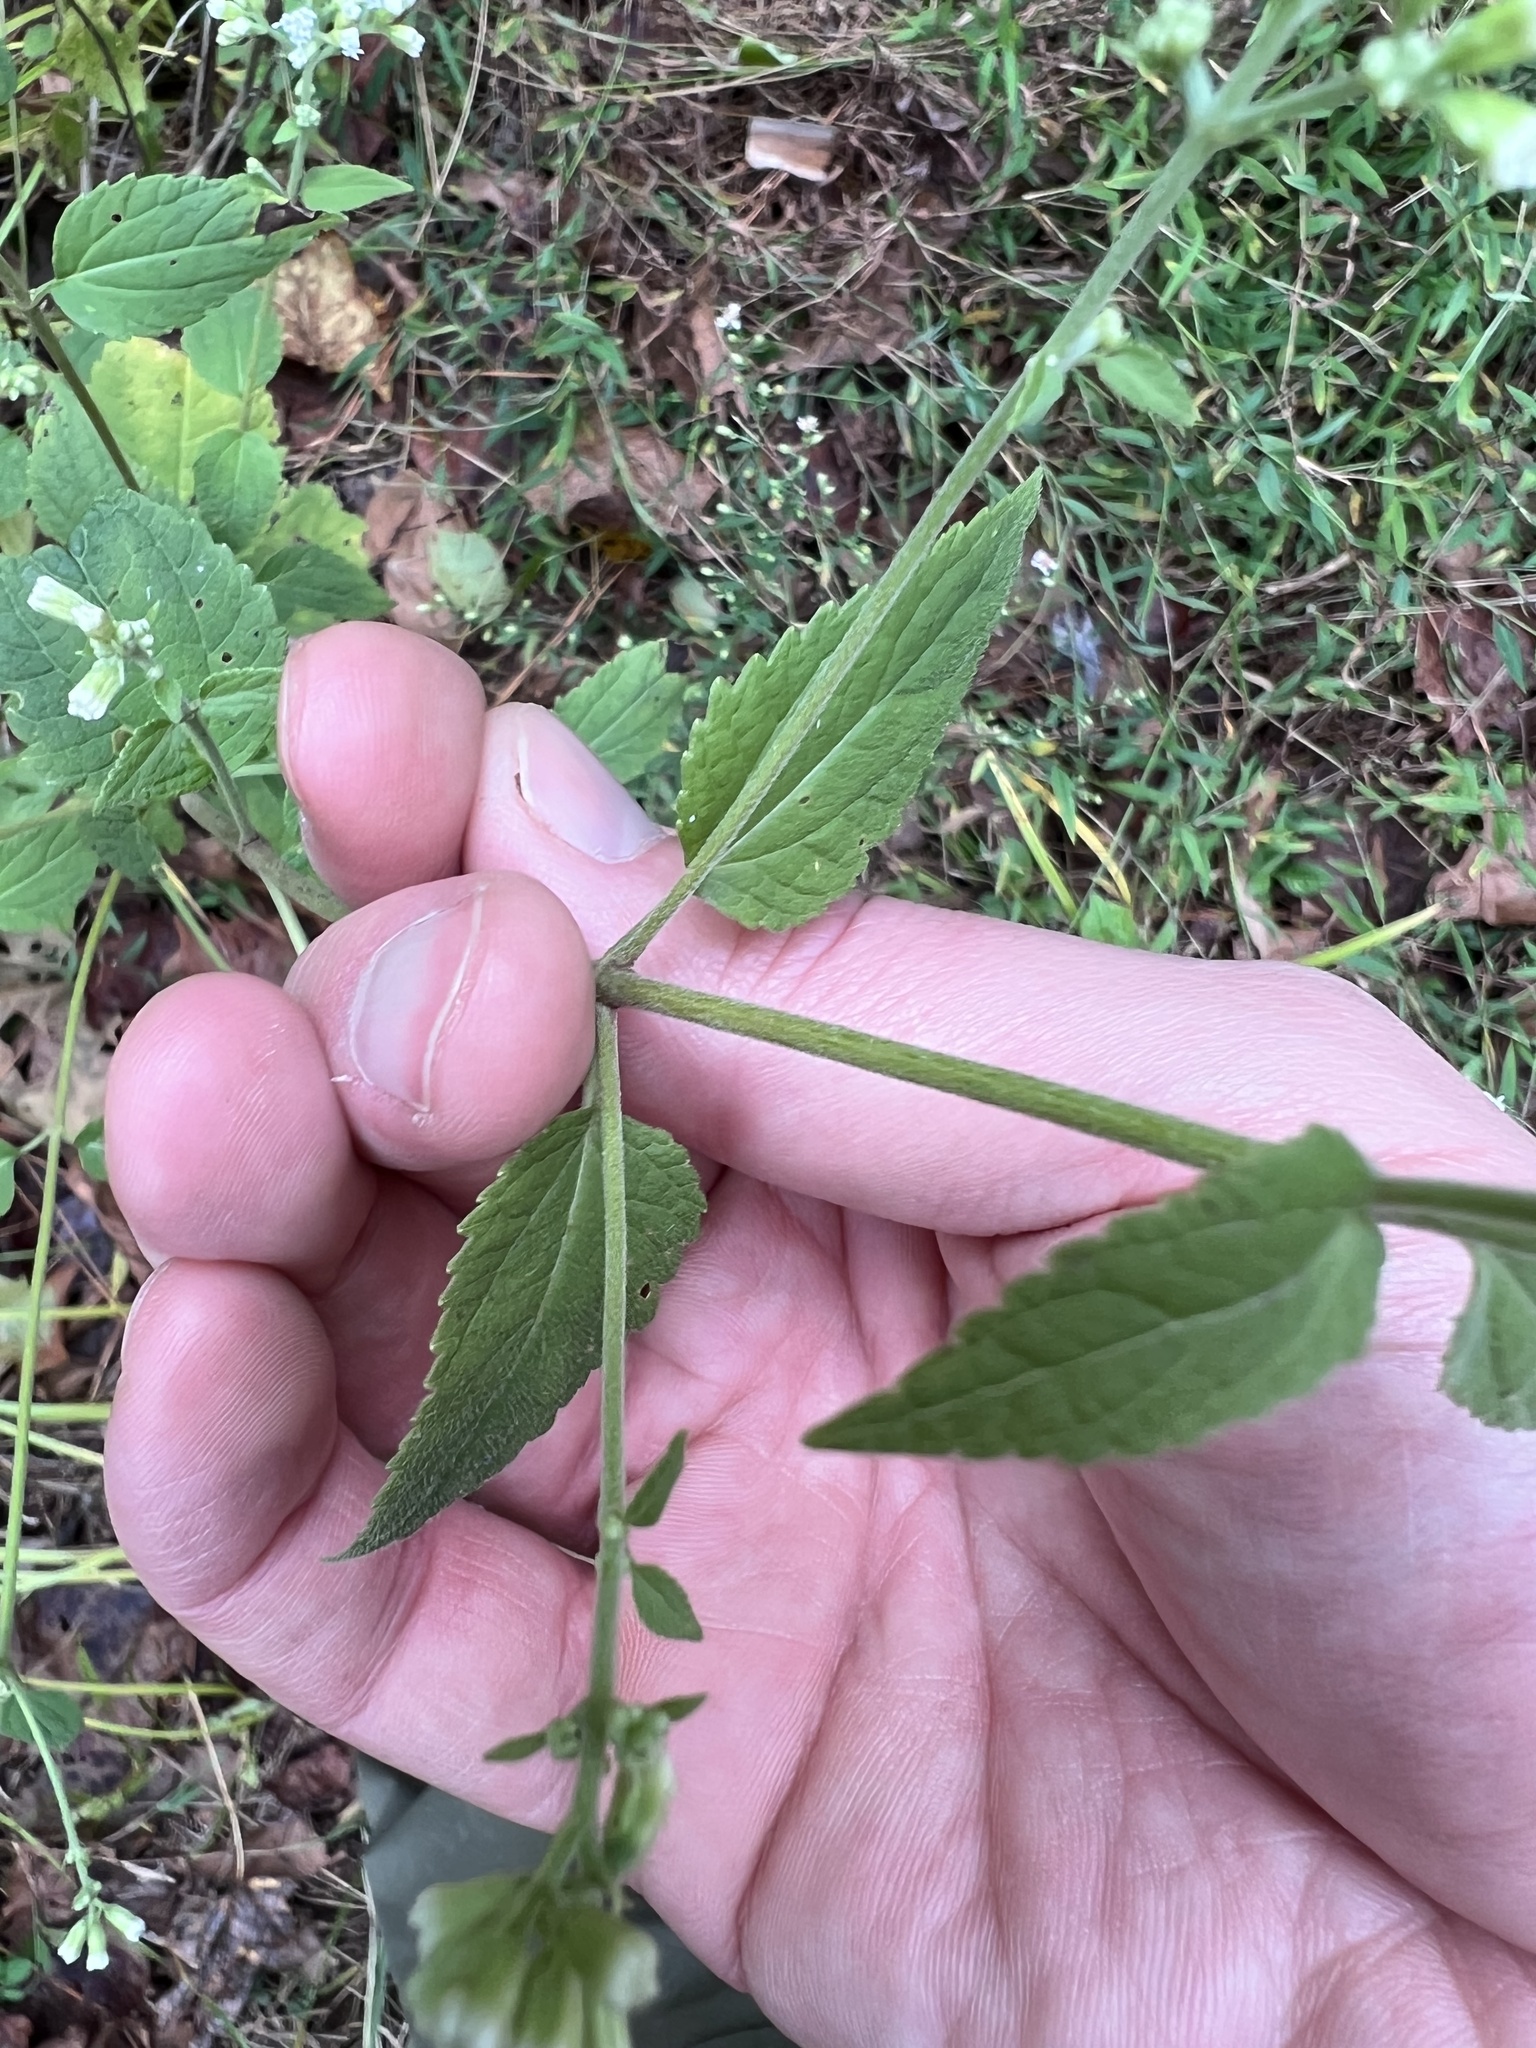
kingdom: Plantae
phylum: Tracheophyta
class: Magnoliopsida
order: Asterales
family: Asteraceae
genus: Ageratina
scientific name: Ageratina altissima
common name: White snakeroot
